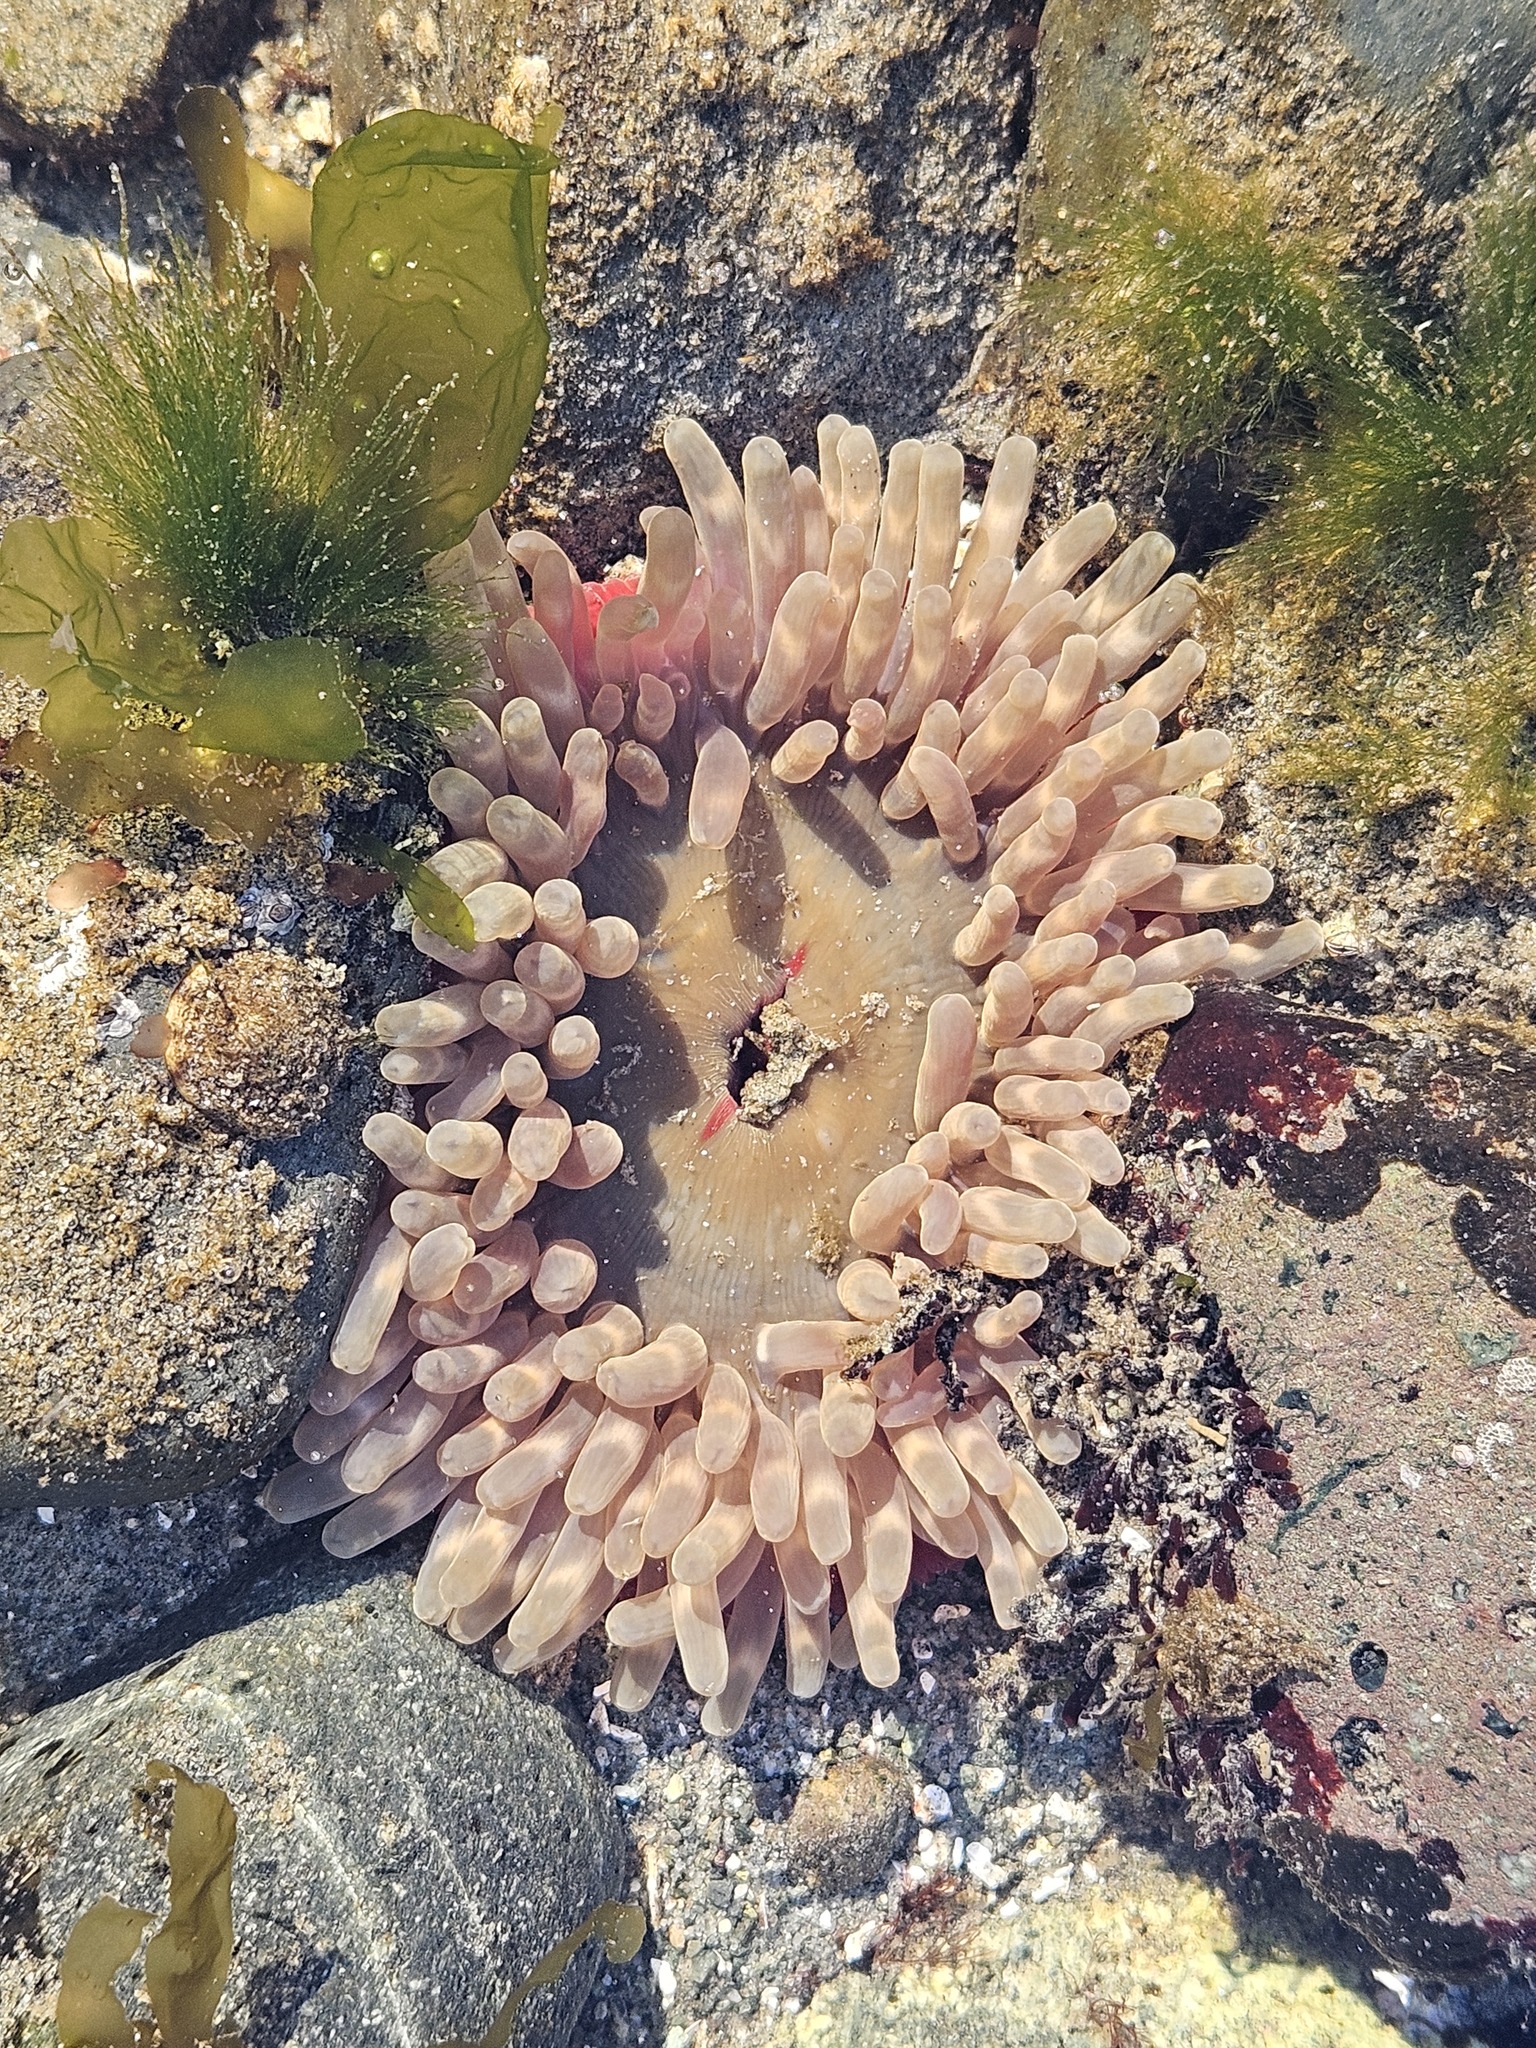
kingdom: Animalia
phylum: Cnidaria
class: Anthozoa
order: Actiniaria
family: Actiniidae
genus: Urticina
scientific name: Urticina clandestina
